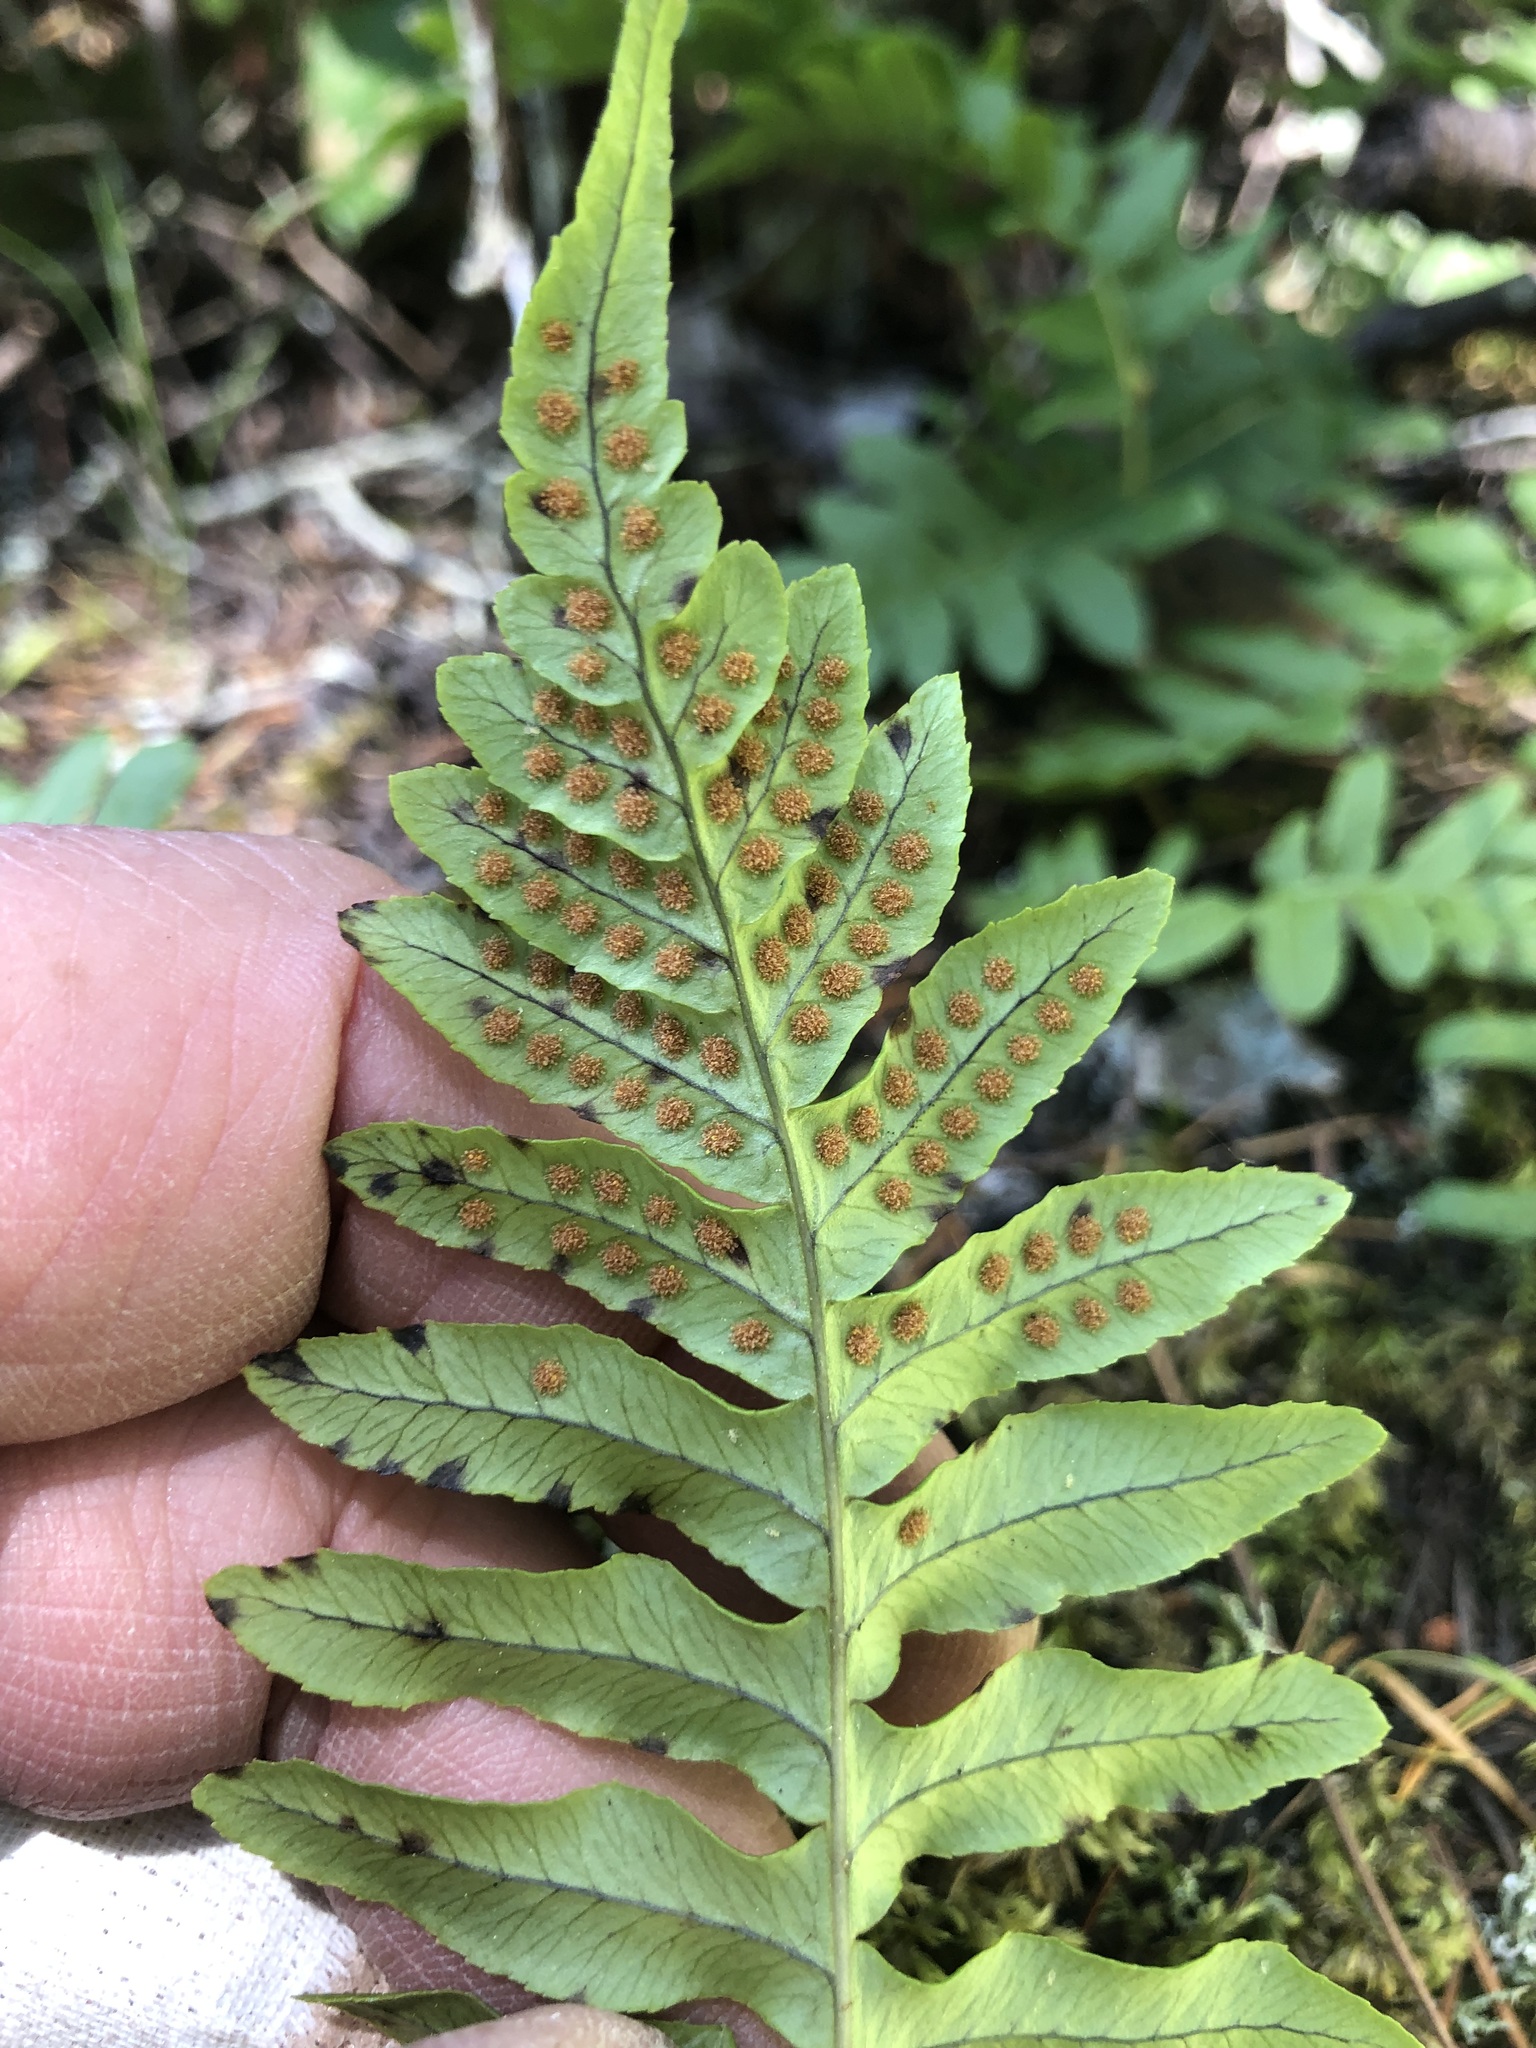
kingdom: Plantae
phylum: Tracheophyta
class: Polypodiopsida
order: Polypodiales
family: Polypodiaceae
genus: Polypodium
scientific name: Polypodium glycyrrhiza
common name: Licorice fern
